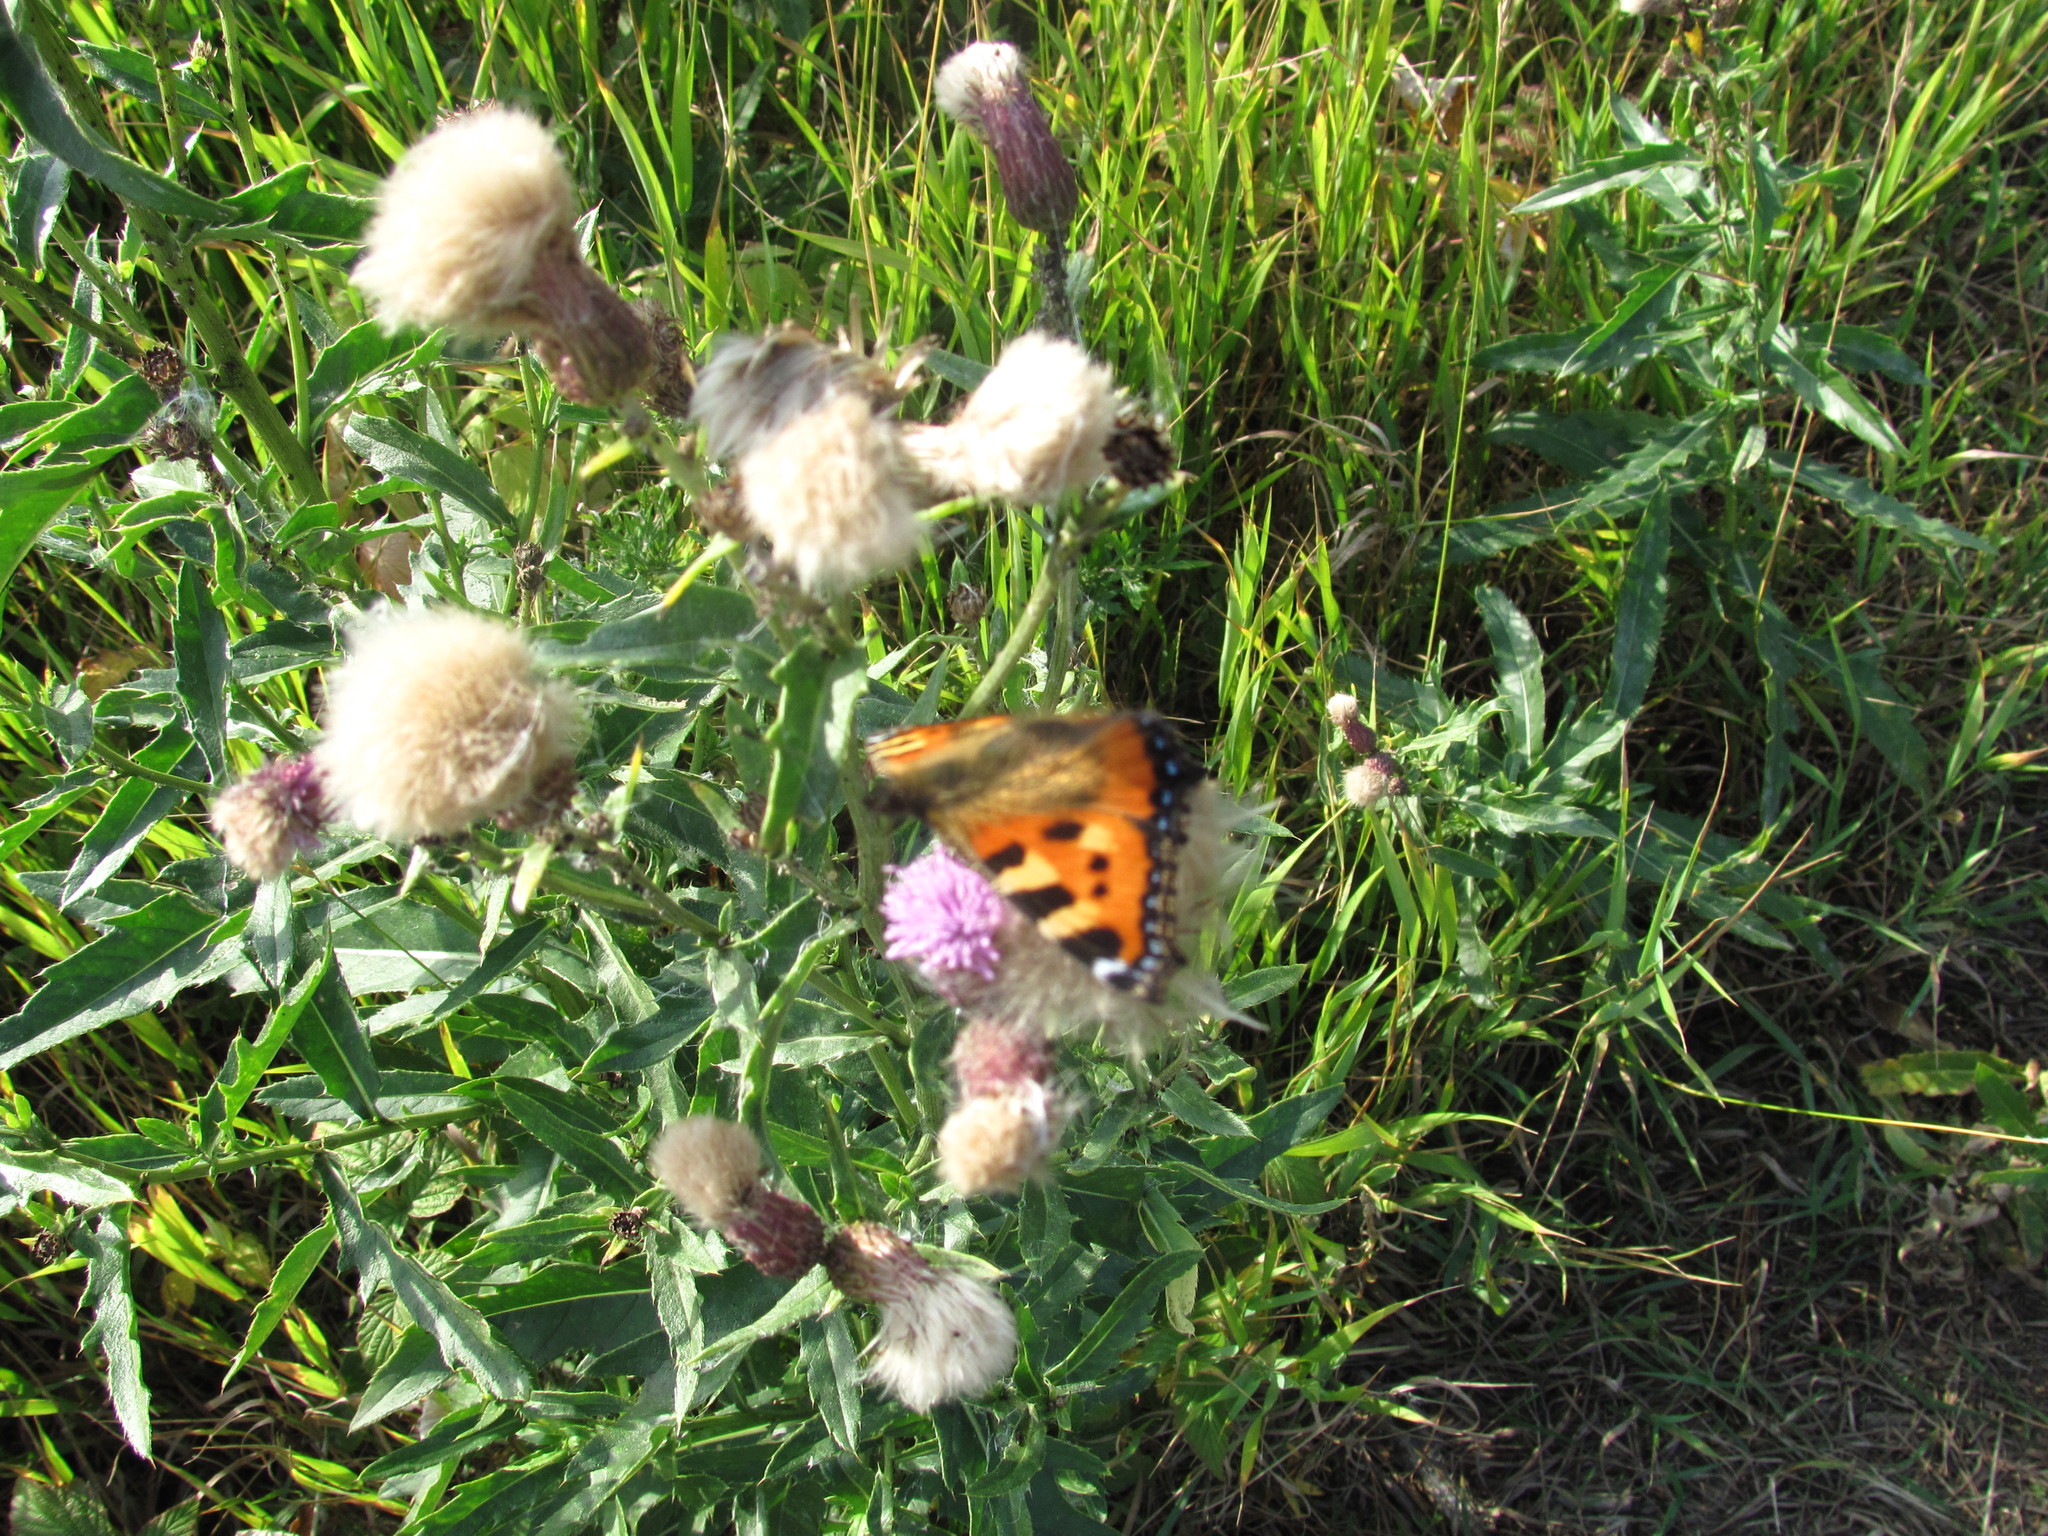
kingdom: Animalia
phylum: Arthropoda
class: Insecta
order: Lepidoptera
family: Nymphalidae
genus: Aglais
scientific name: Aglais urticae
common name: Small tortoiseshell
